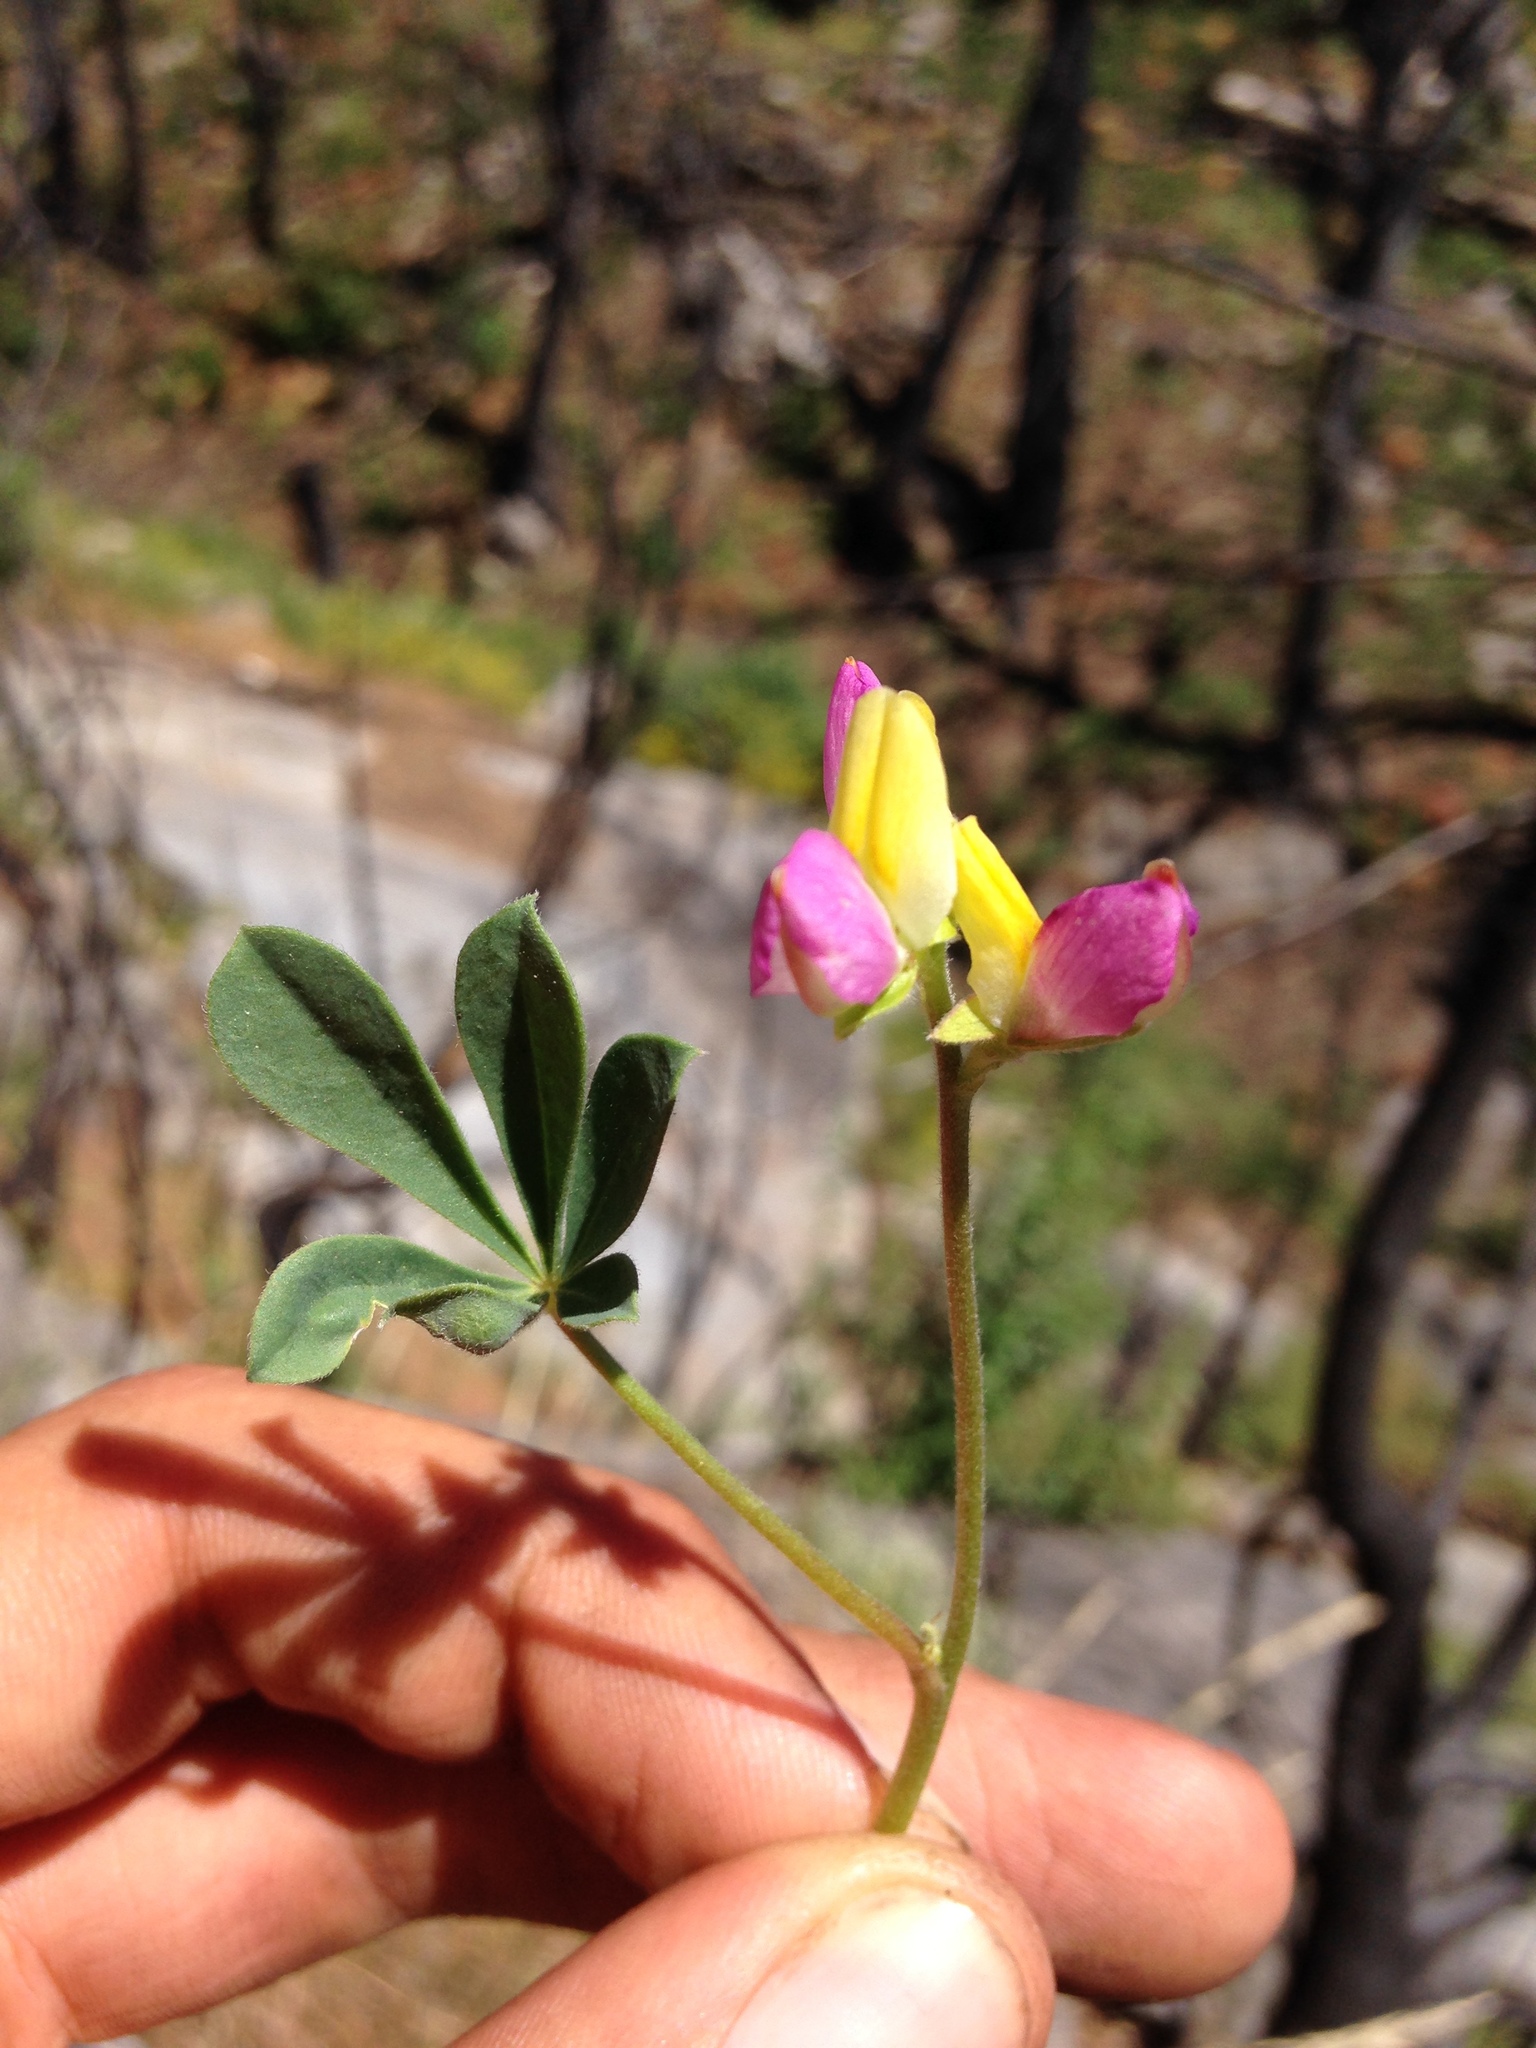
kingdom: Plantae
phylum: Tracheophyta
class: Magnoliopsida
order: Fabales
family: Fabaceae
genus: Lupinus
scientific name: Lupinus stiversii
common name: Harlequin lupine
